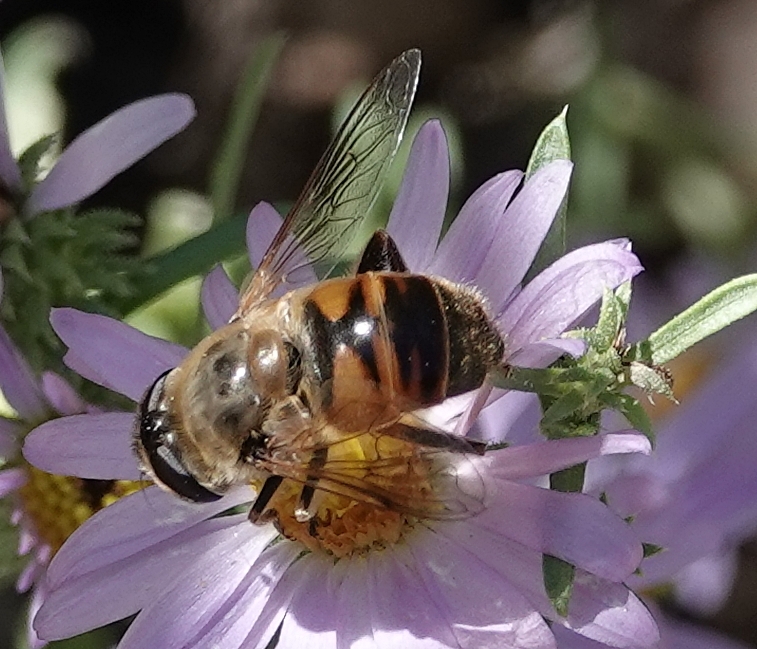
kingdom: Animalia
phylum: Arthropoda
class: Insecta
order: Diptera
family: Syrphidae
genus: Eristalis
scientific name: Eristalis tenax
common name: Drone fly
